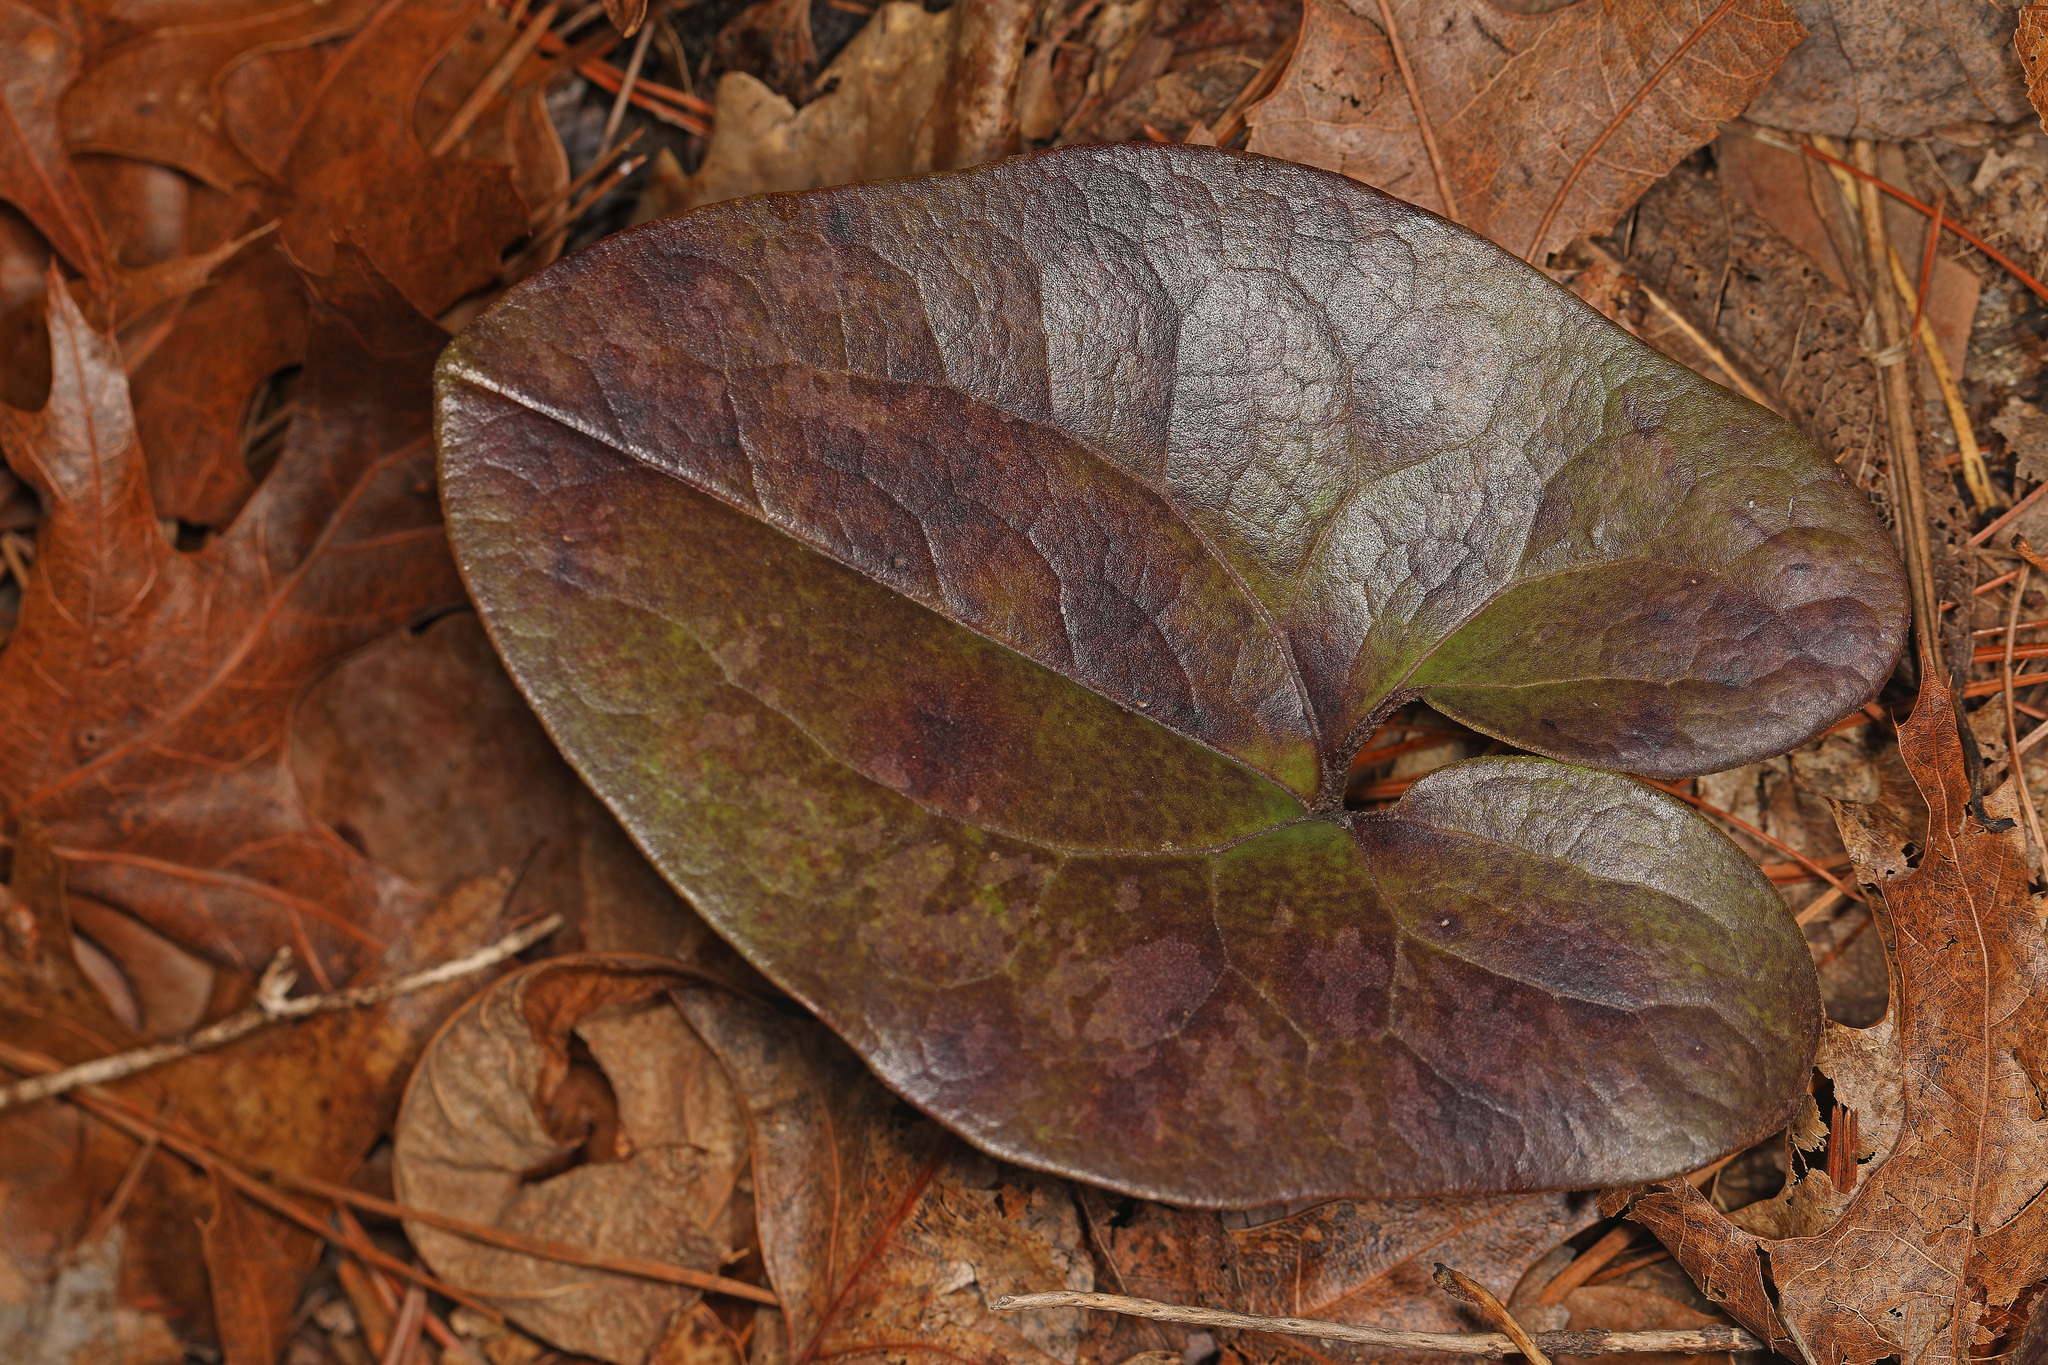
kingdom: Plantae
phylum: Tracheophyta
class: Magnoliopsida
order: Piperales
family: Aristolochiaceae
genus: Hexastylis
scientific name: Hexastylis arifolia
